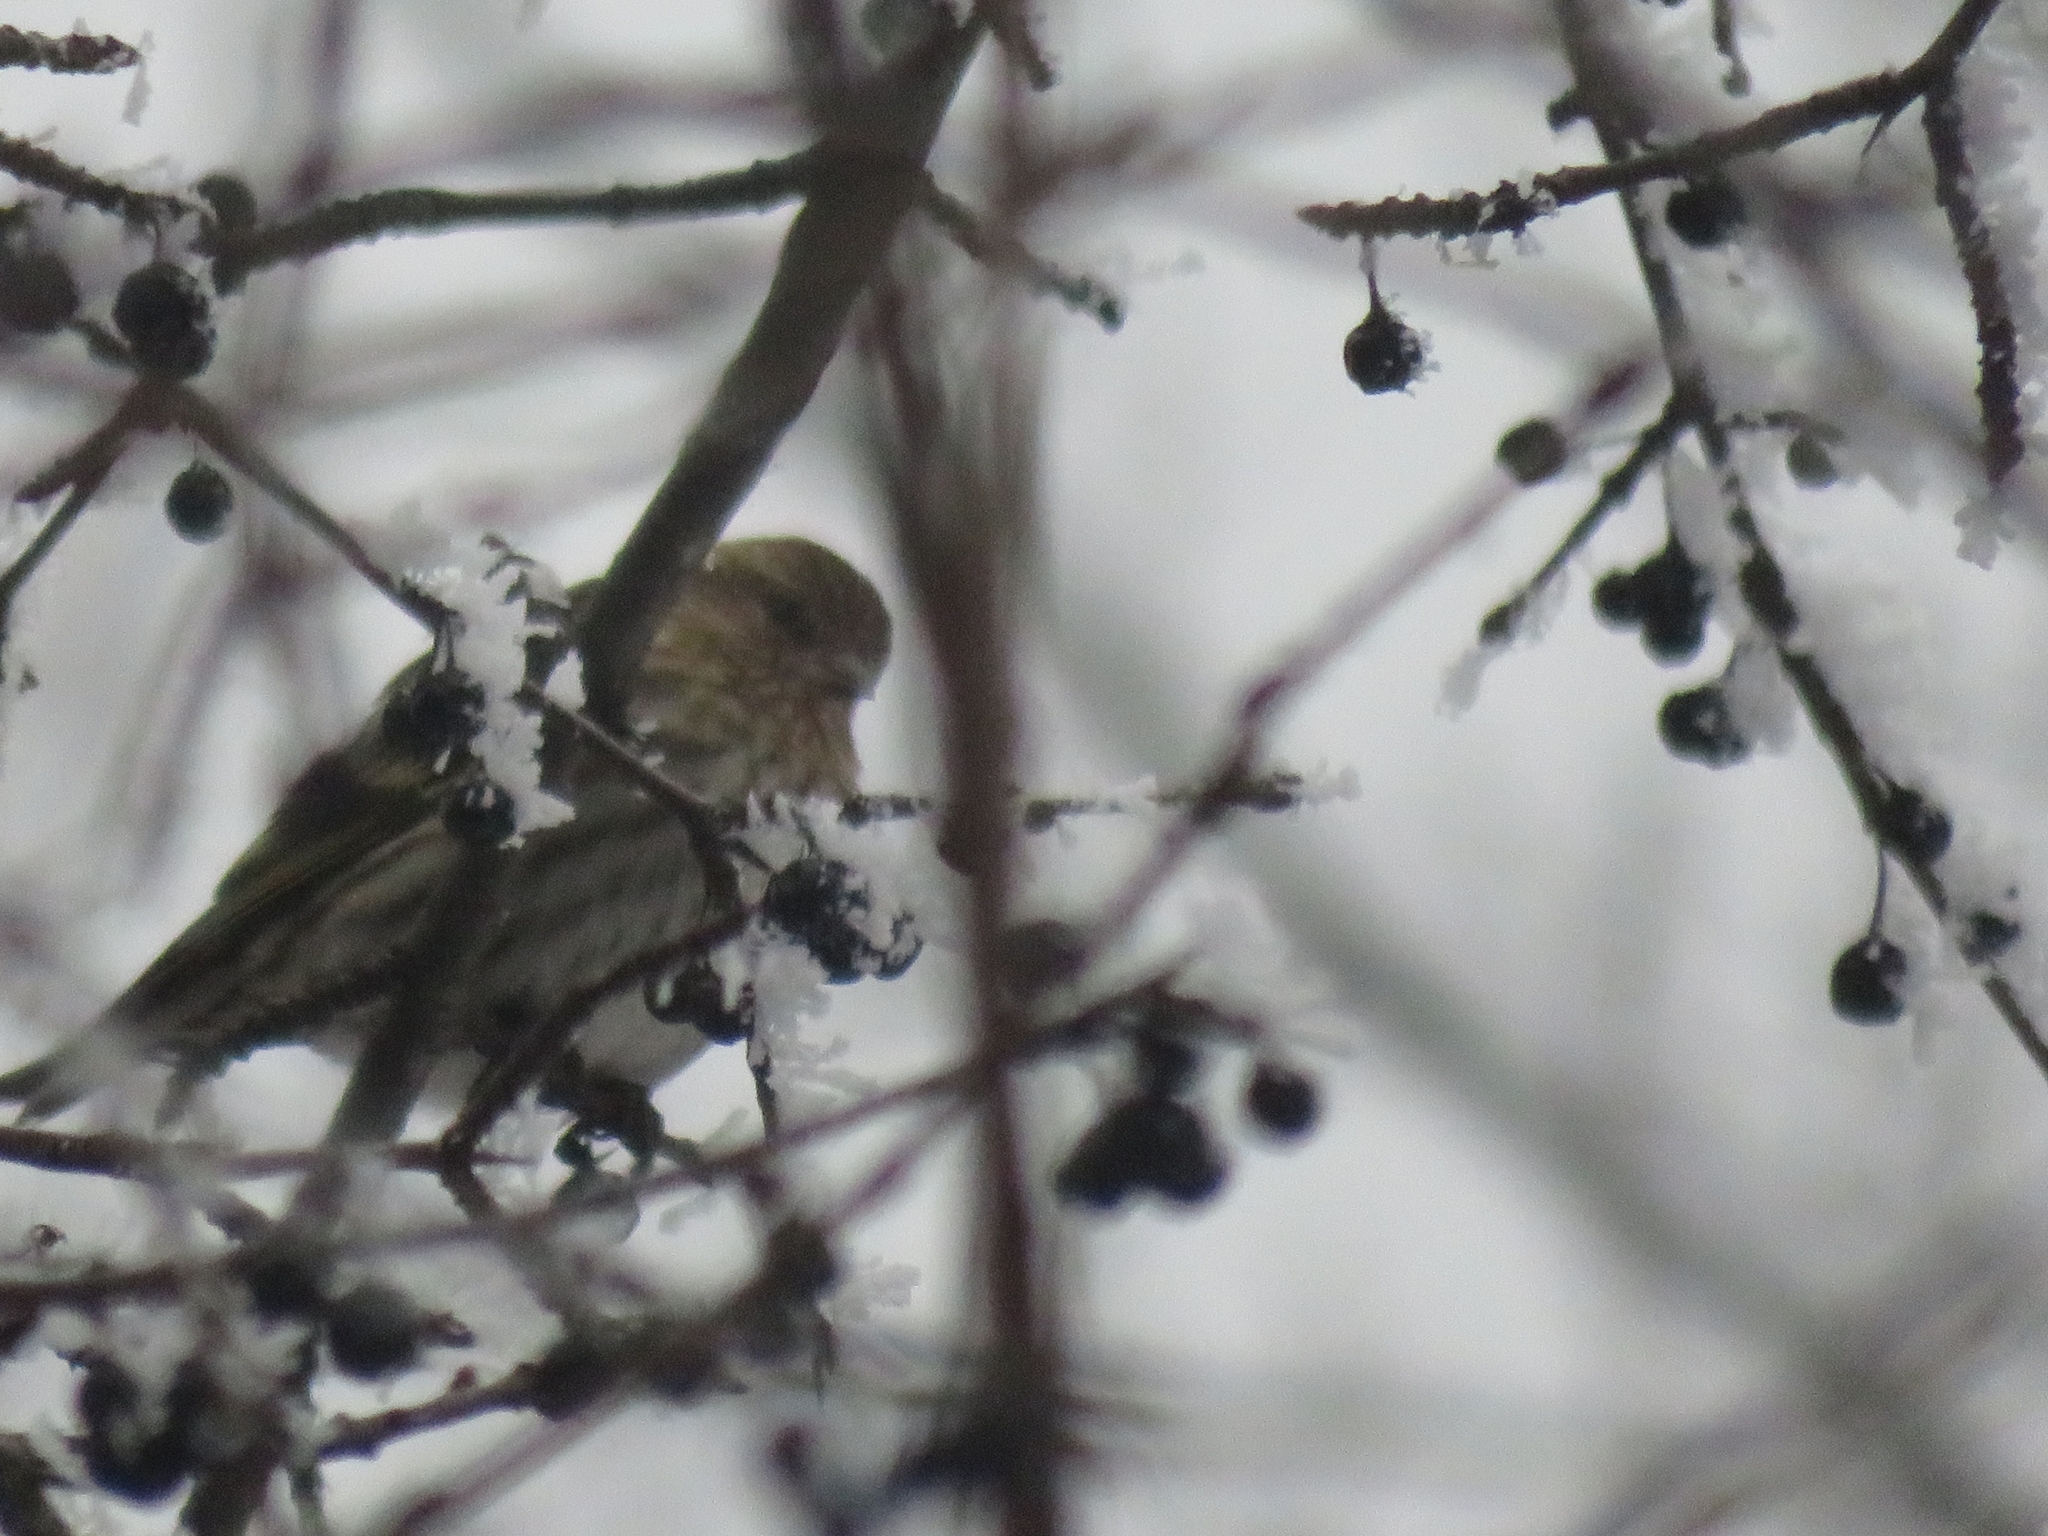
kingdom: Animalia
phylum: Chordata
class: Aves
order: Passeriformes
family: Fringillidae
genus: Spinus
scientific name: Spinus pinus
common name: Pine siskin
